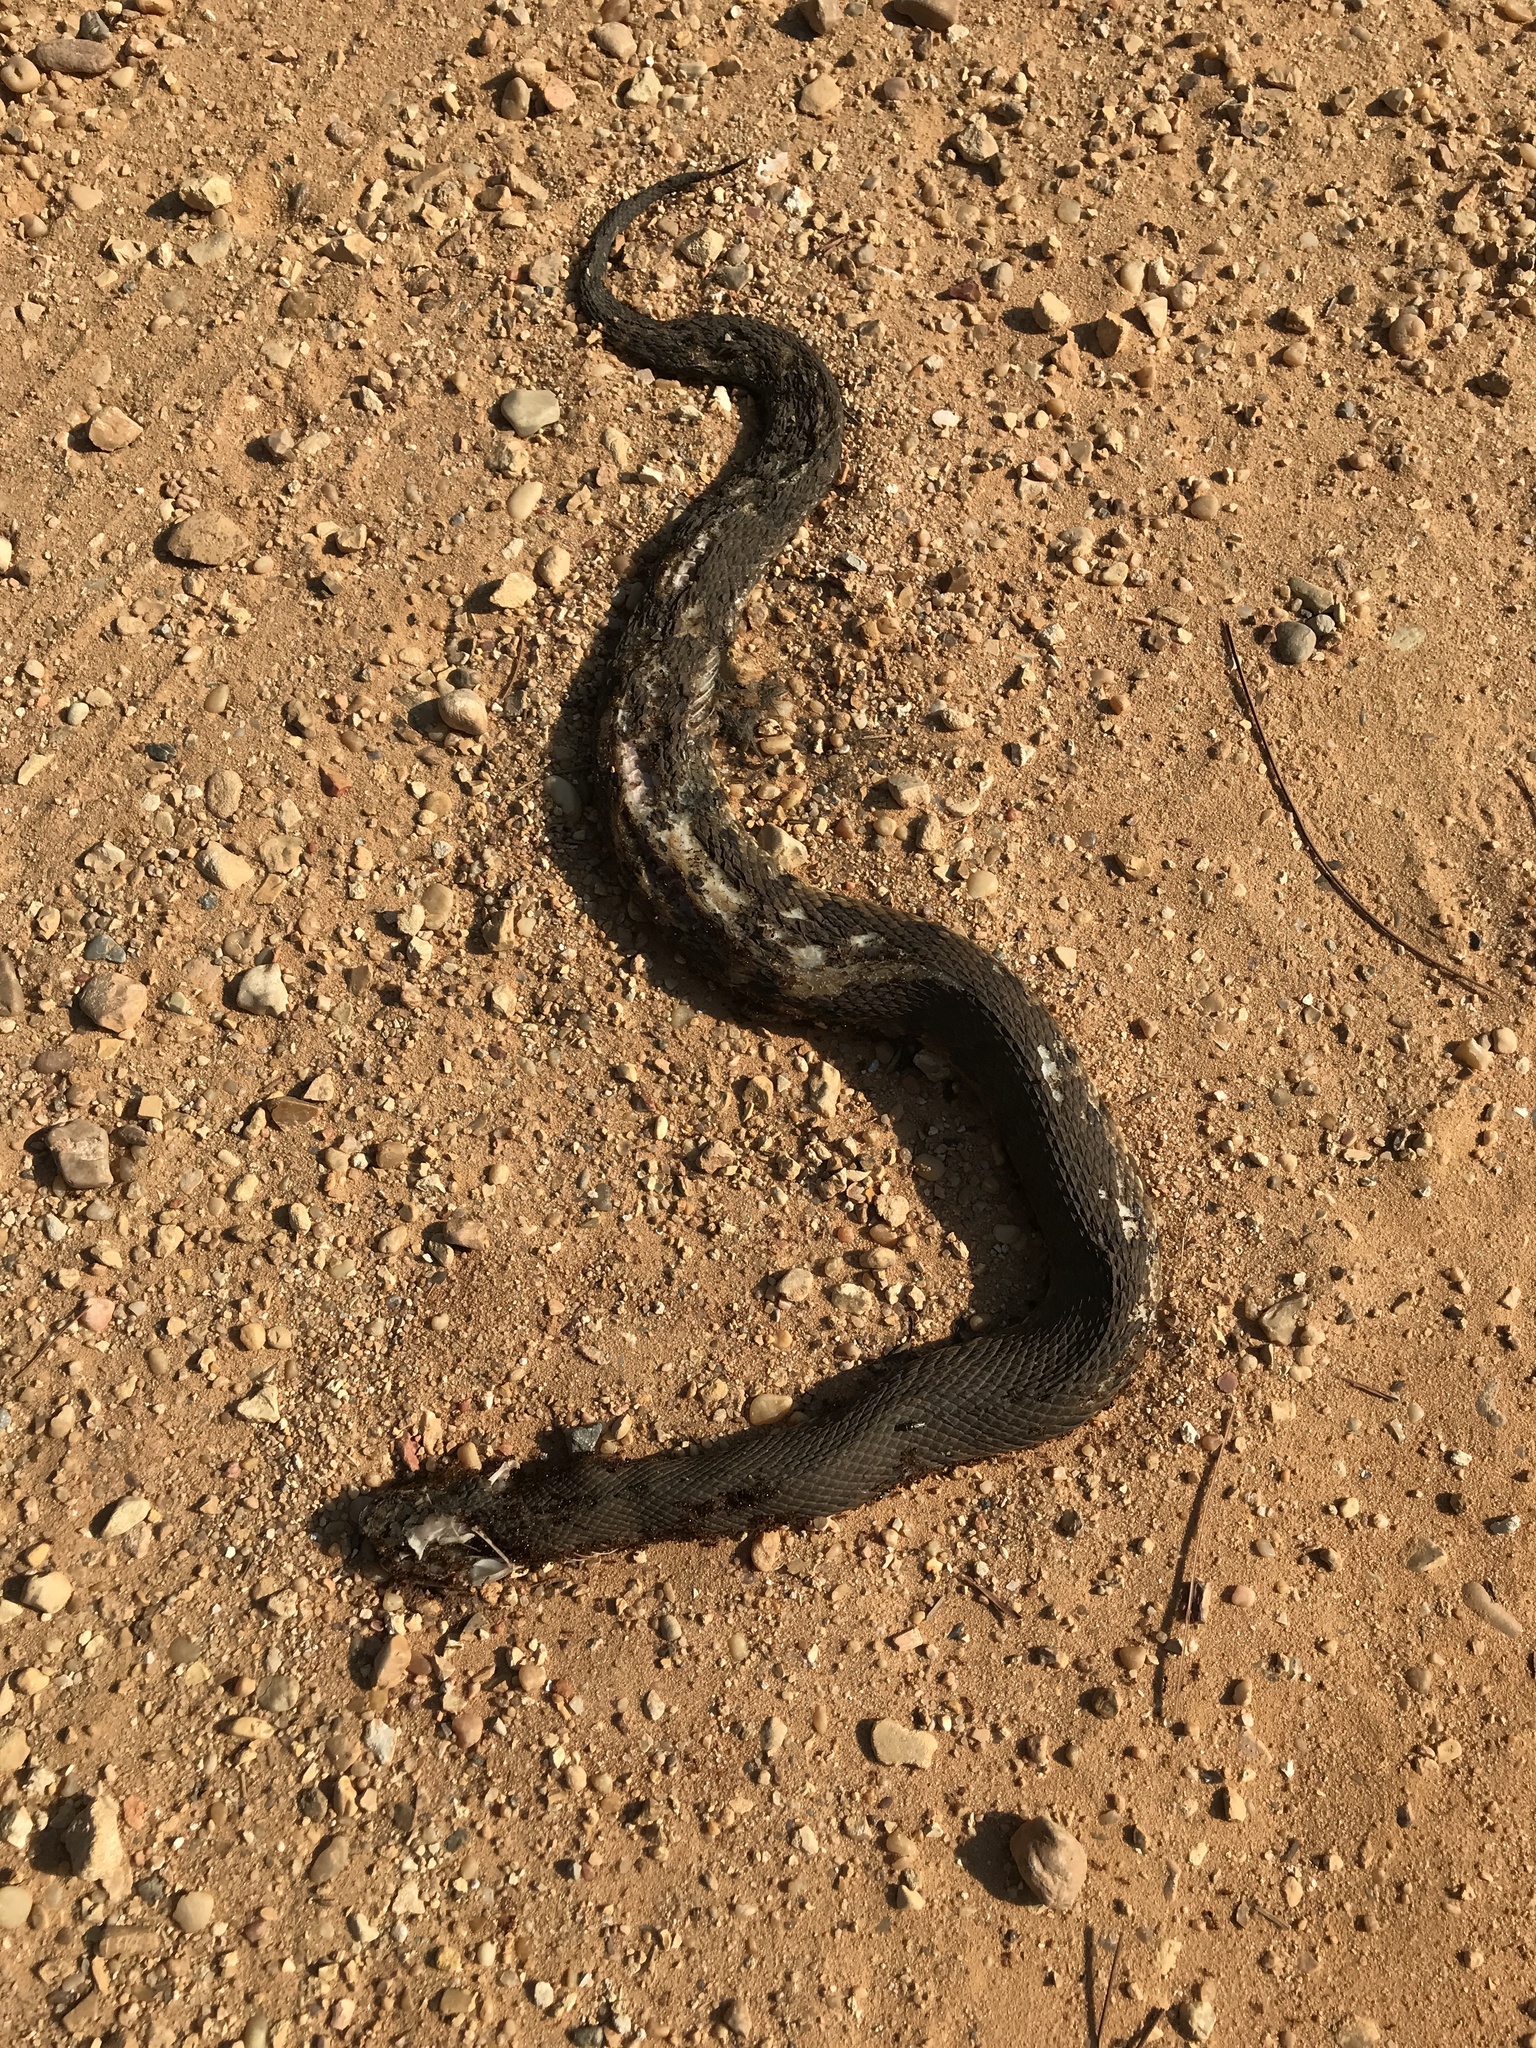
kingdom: Animalia
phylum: Chordata
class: Squamata
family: Viperidae
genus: Agkistrodon
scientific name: Agkistrodon piscivorus
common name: Cottonmouth
